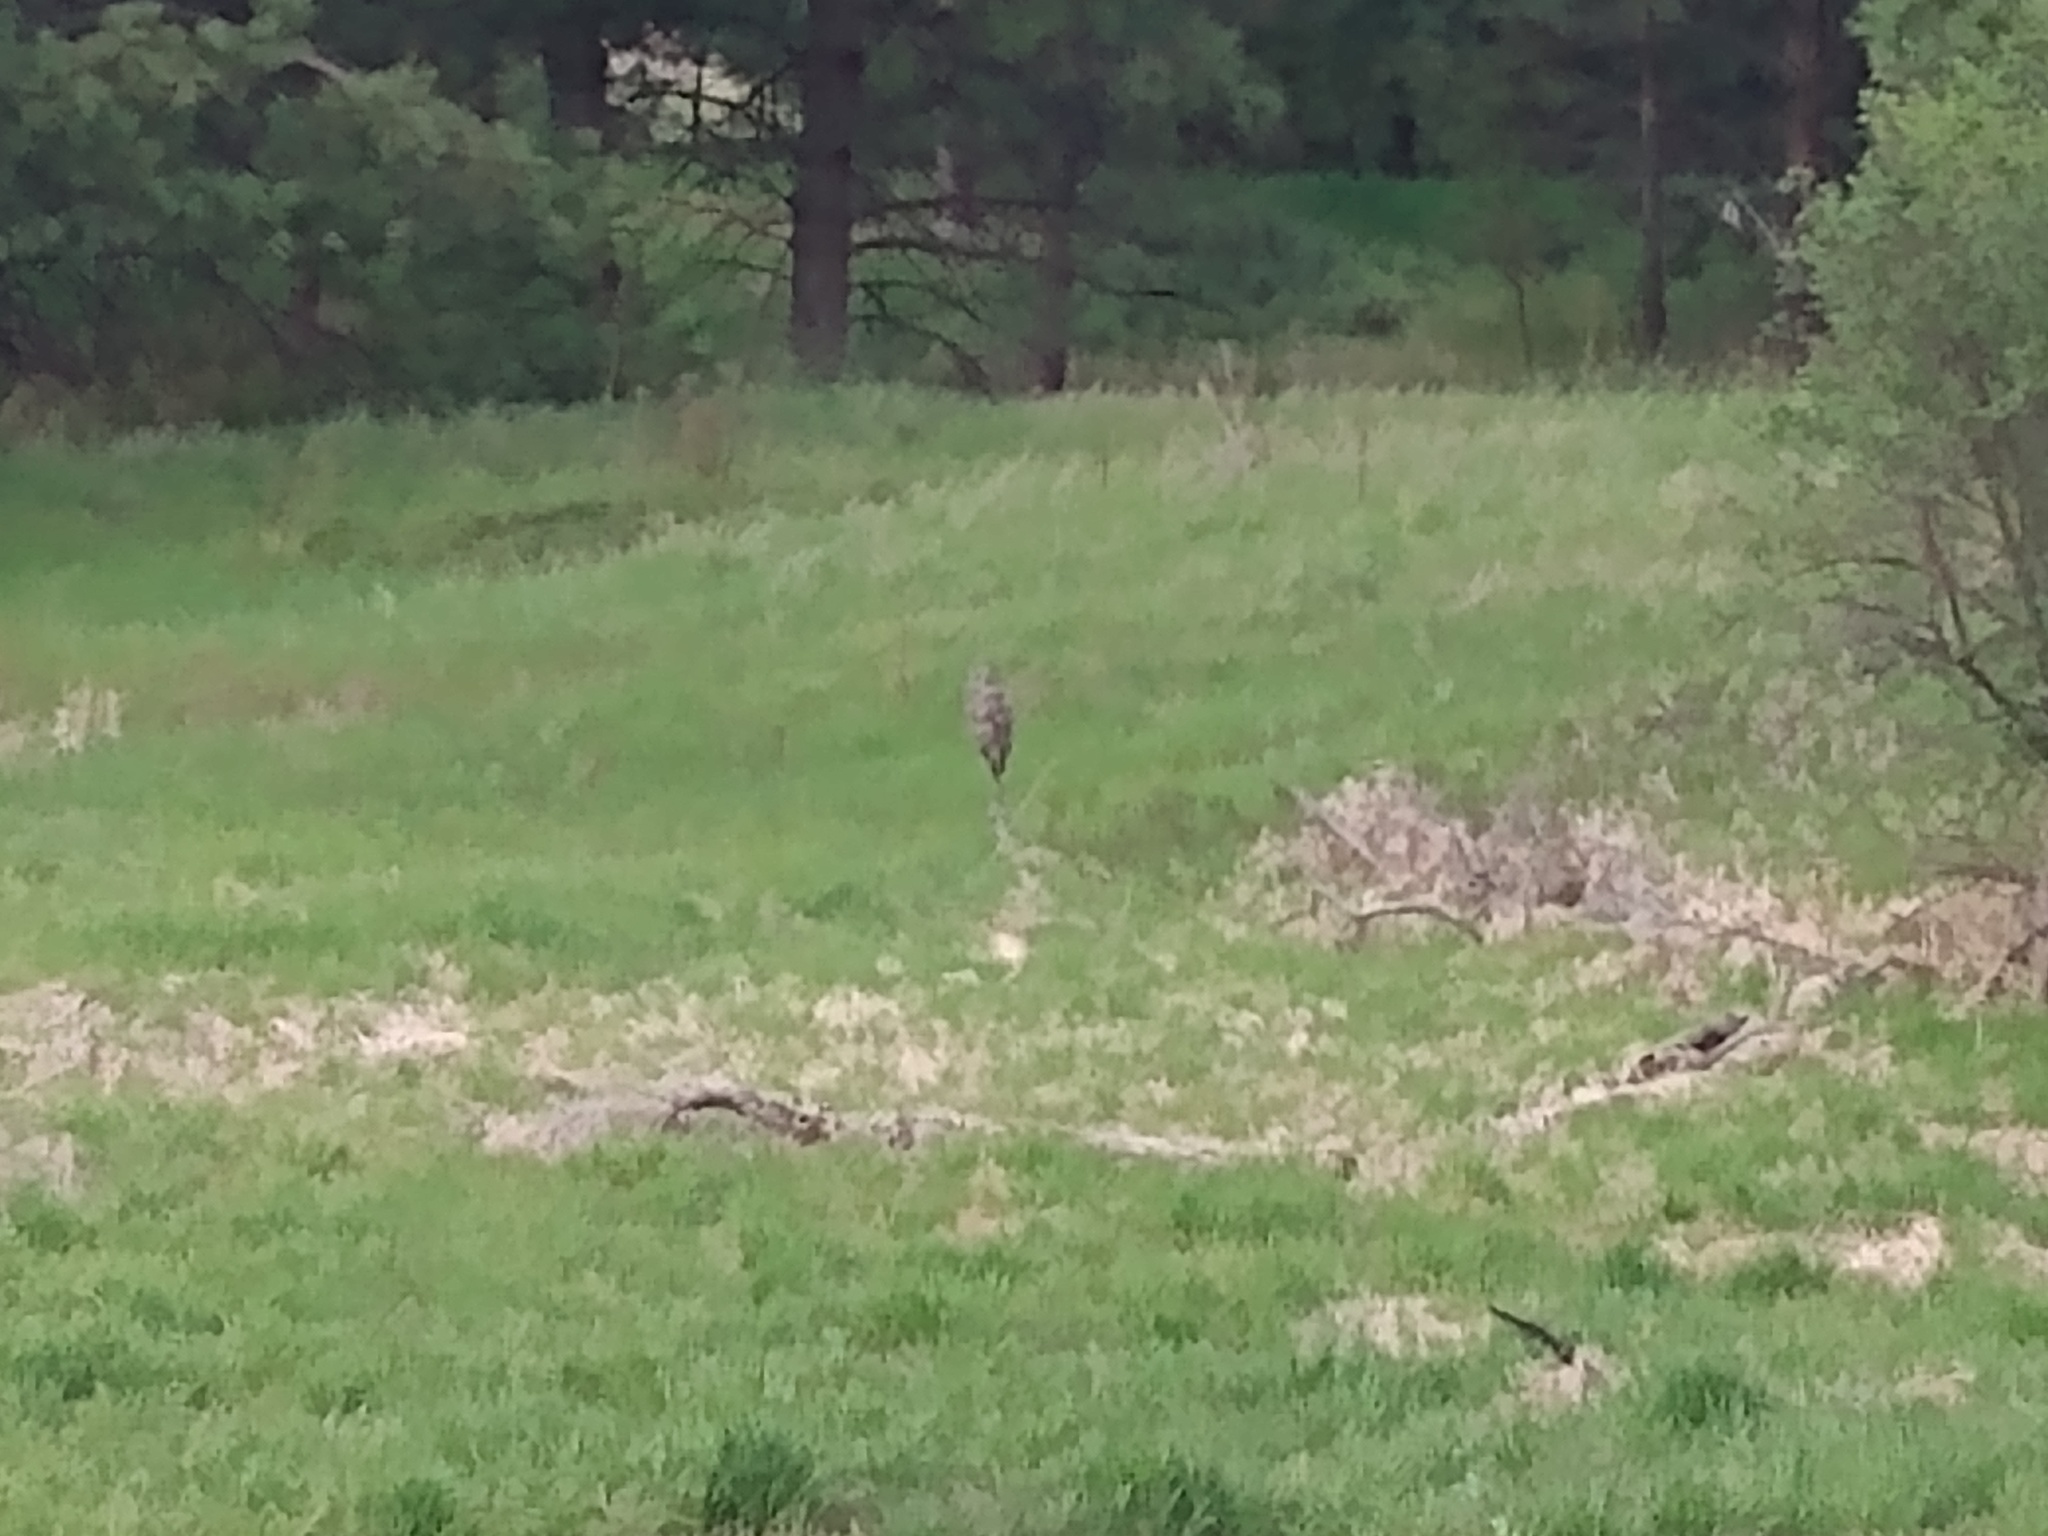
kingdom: Animalia
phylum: Chordata
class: Aves
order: Strigiformes
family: Strigidae
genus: Strix
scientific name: Strix nebulosa
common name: Great grey owl
